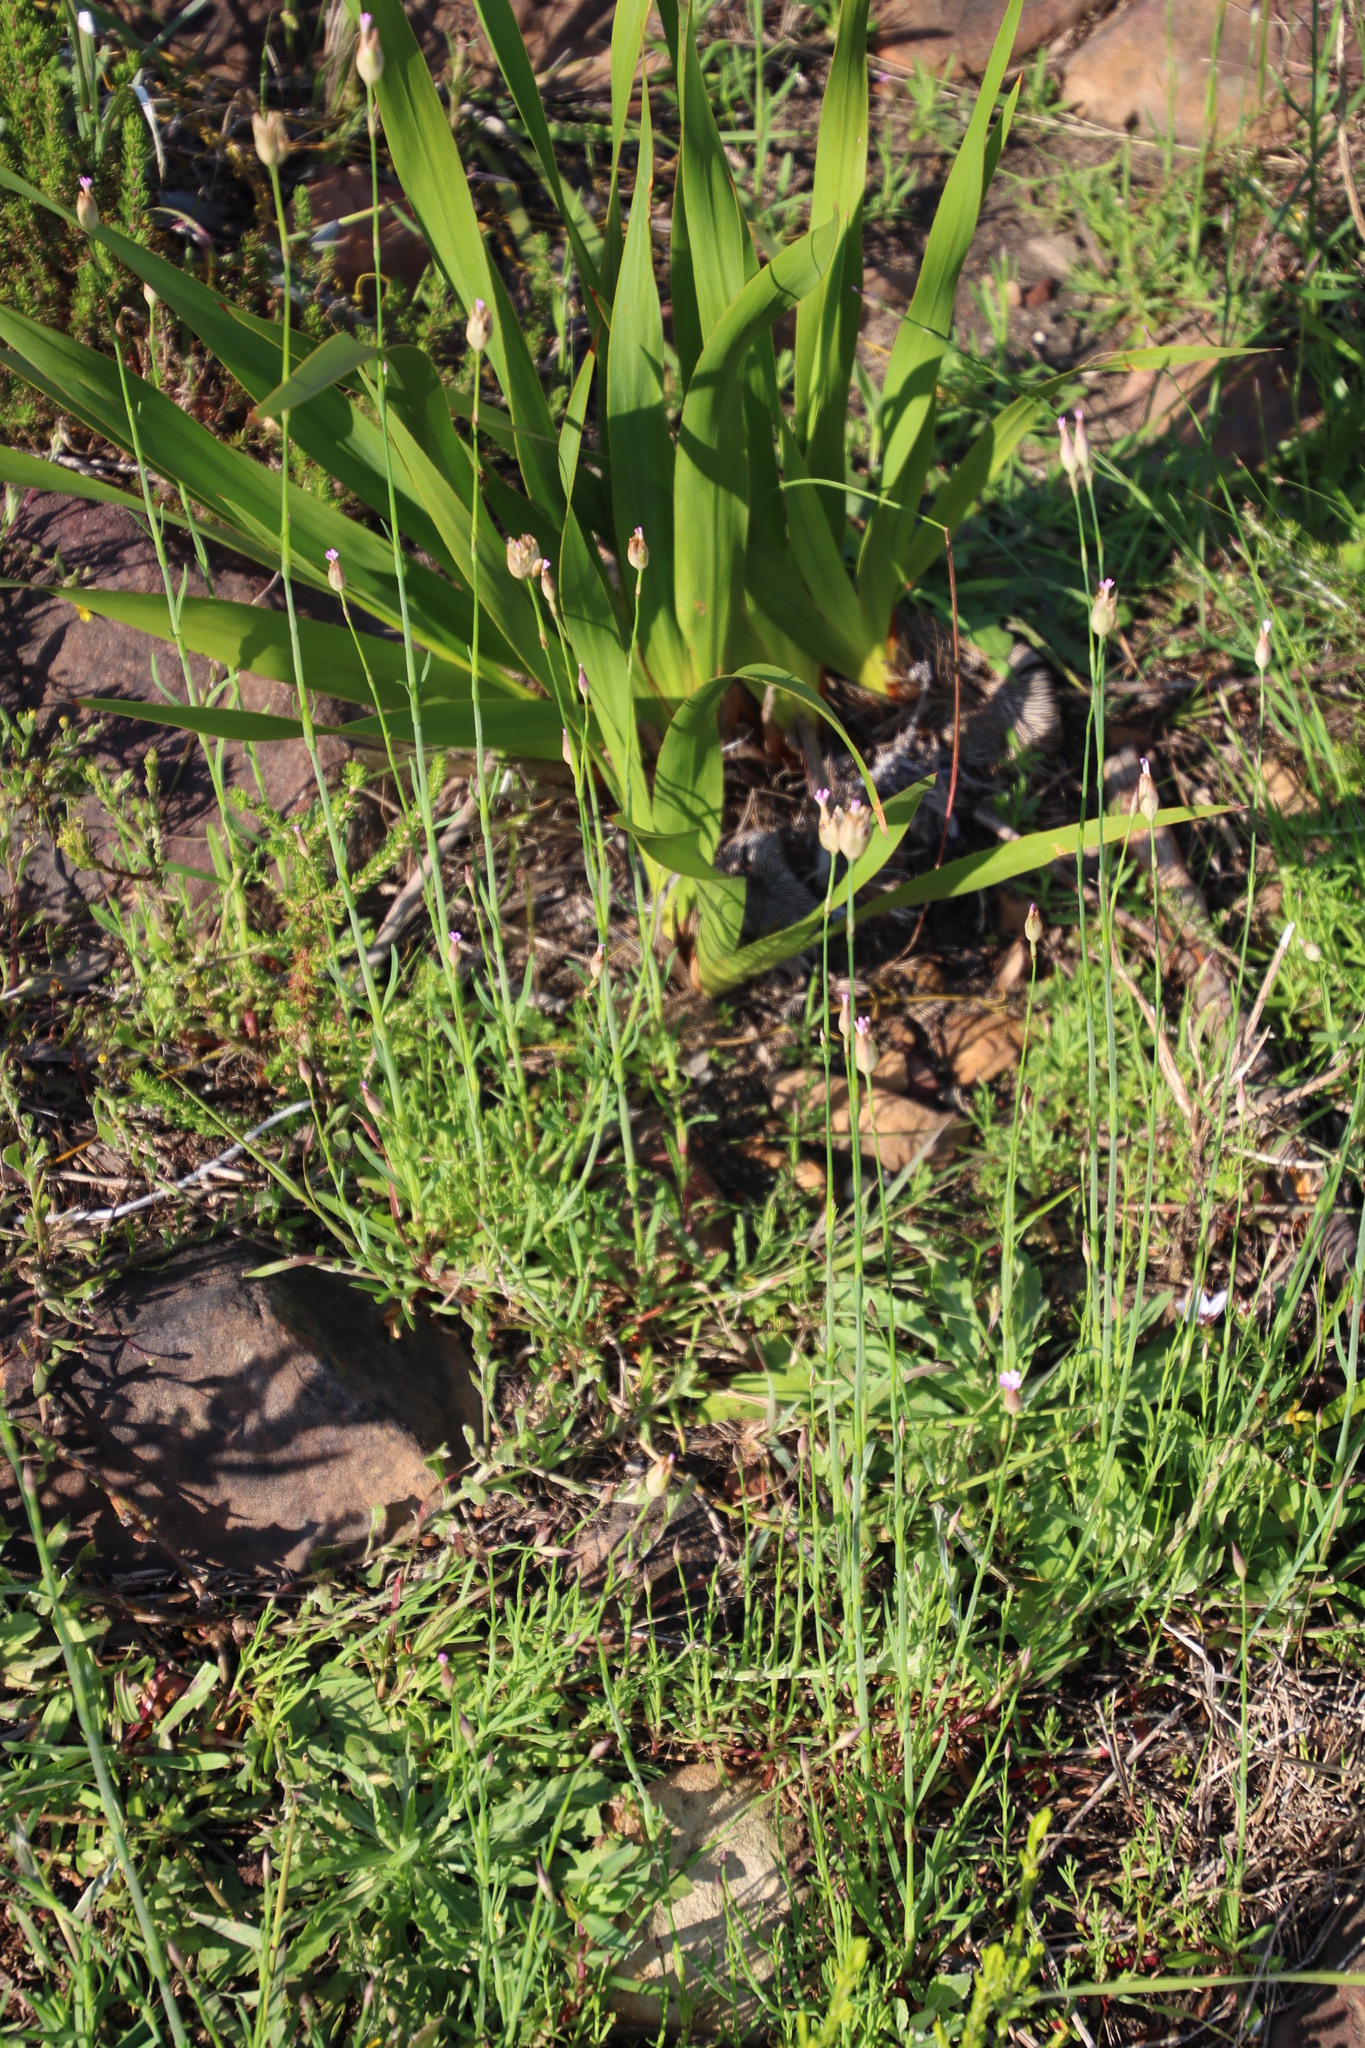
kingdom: Plantae
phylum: Tracheophyta
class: Magnoliopsida
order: Caryophyllales
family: Caryophyllaceae
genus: Petrorhagia
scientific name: Petrorhagia prolifera
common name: Proliferous pink
